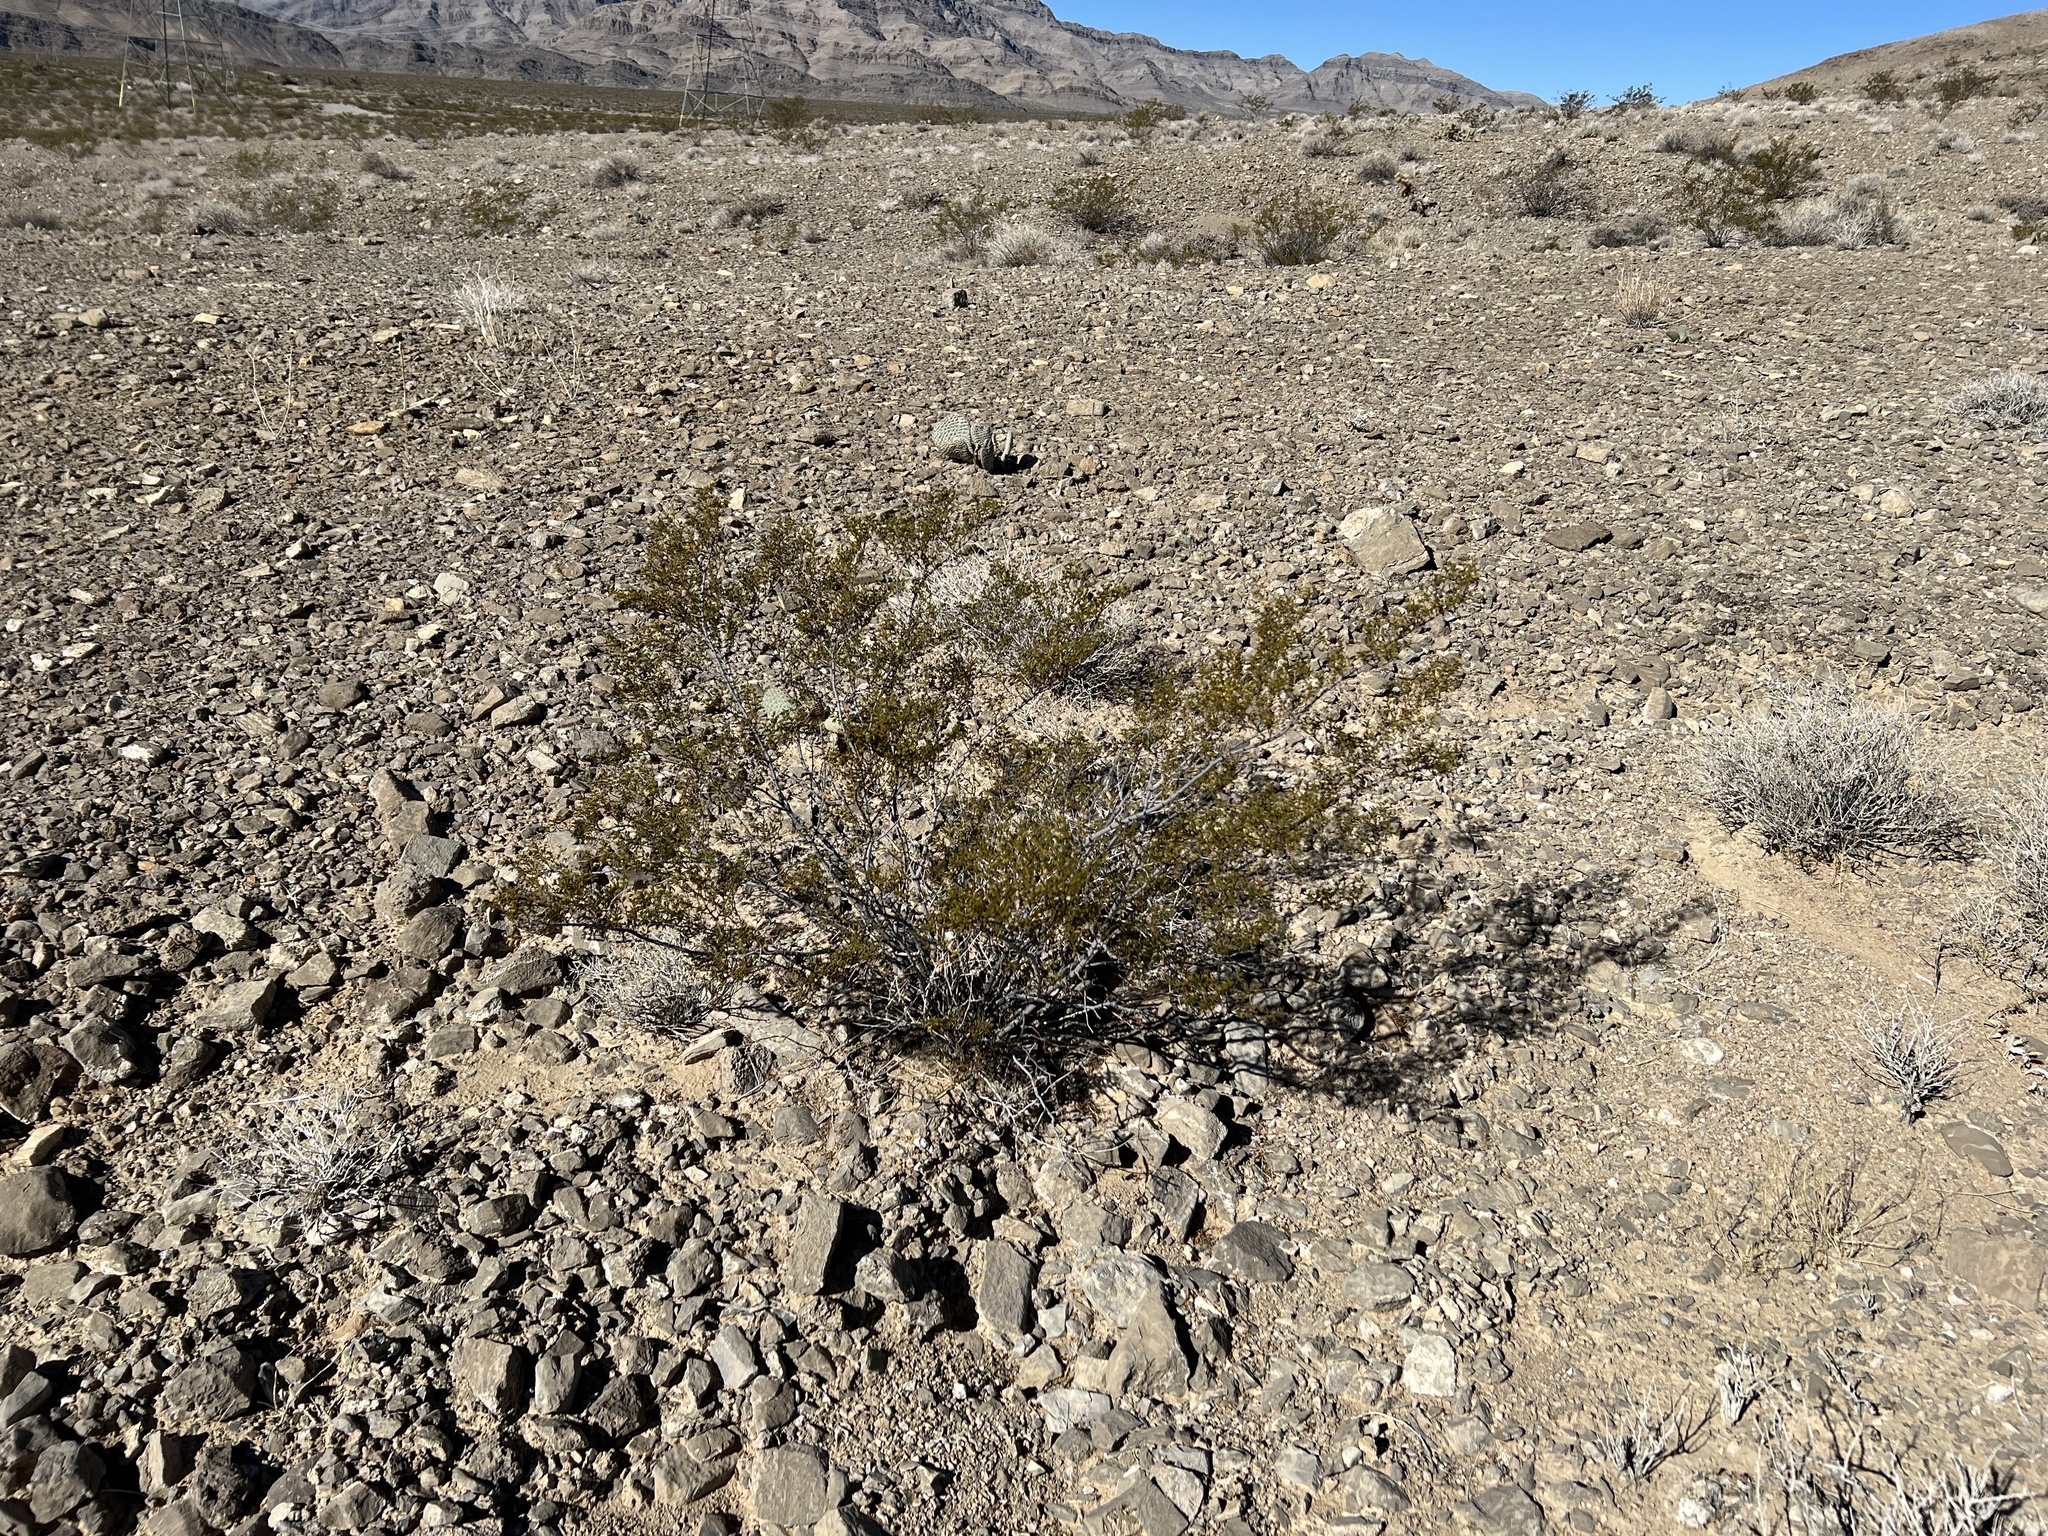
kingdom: Plantae
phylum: Tracheophyta
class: Magnoliopsida
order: Zygophyllales
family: Zygophyllaceae
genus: Larrea
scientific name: Larrea tridentata
